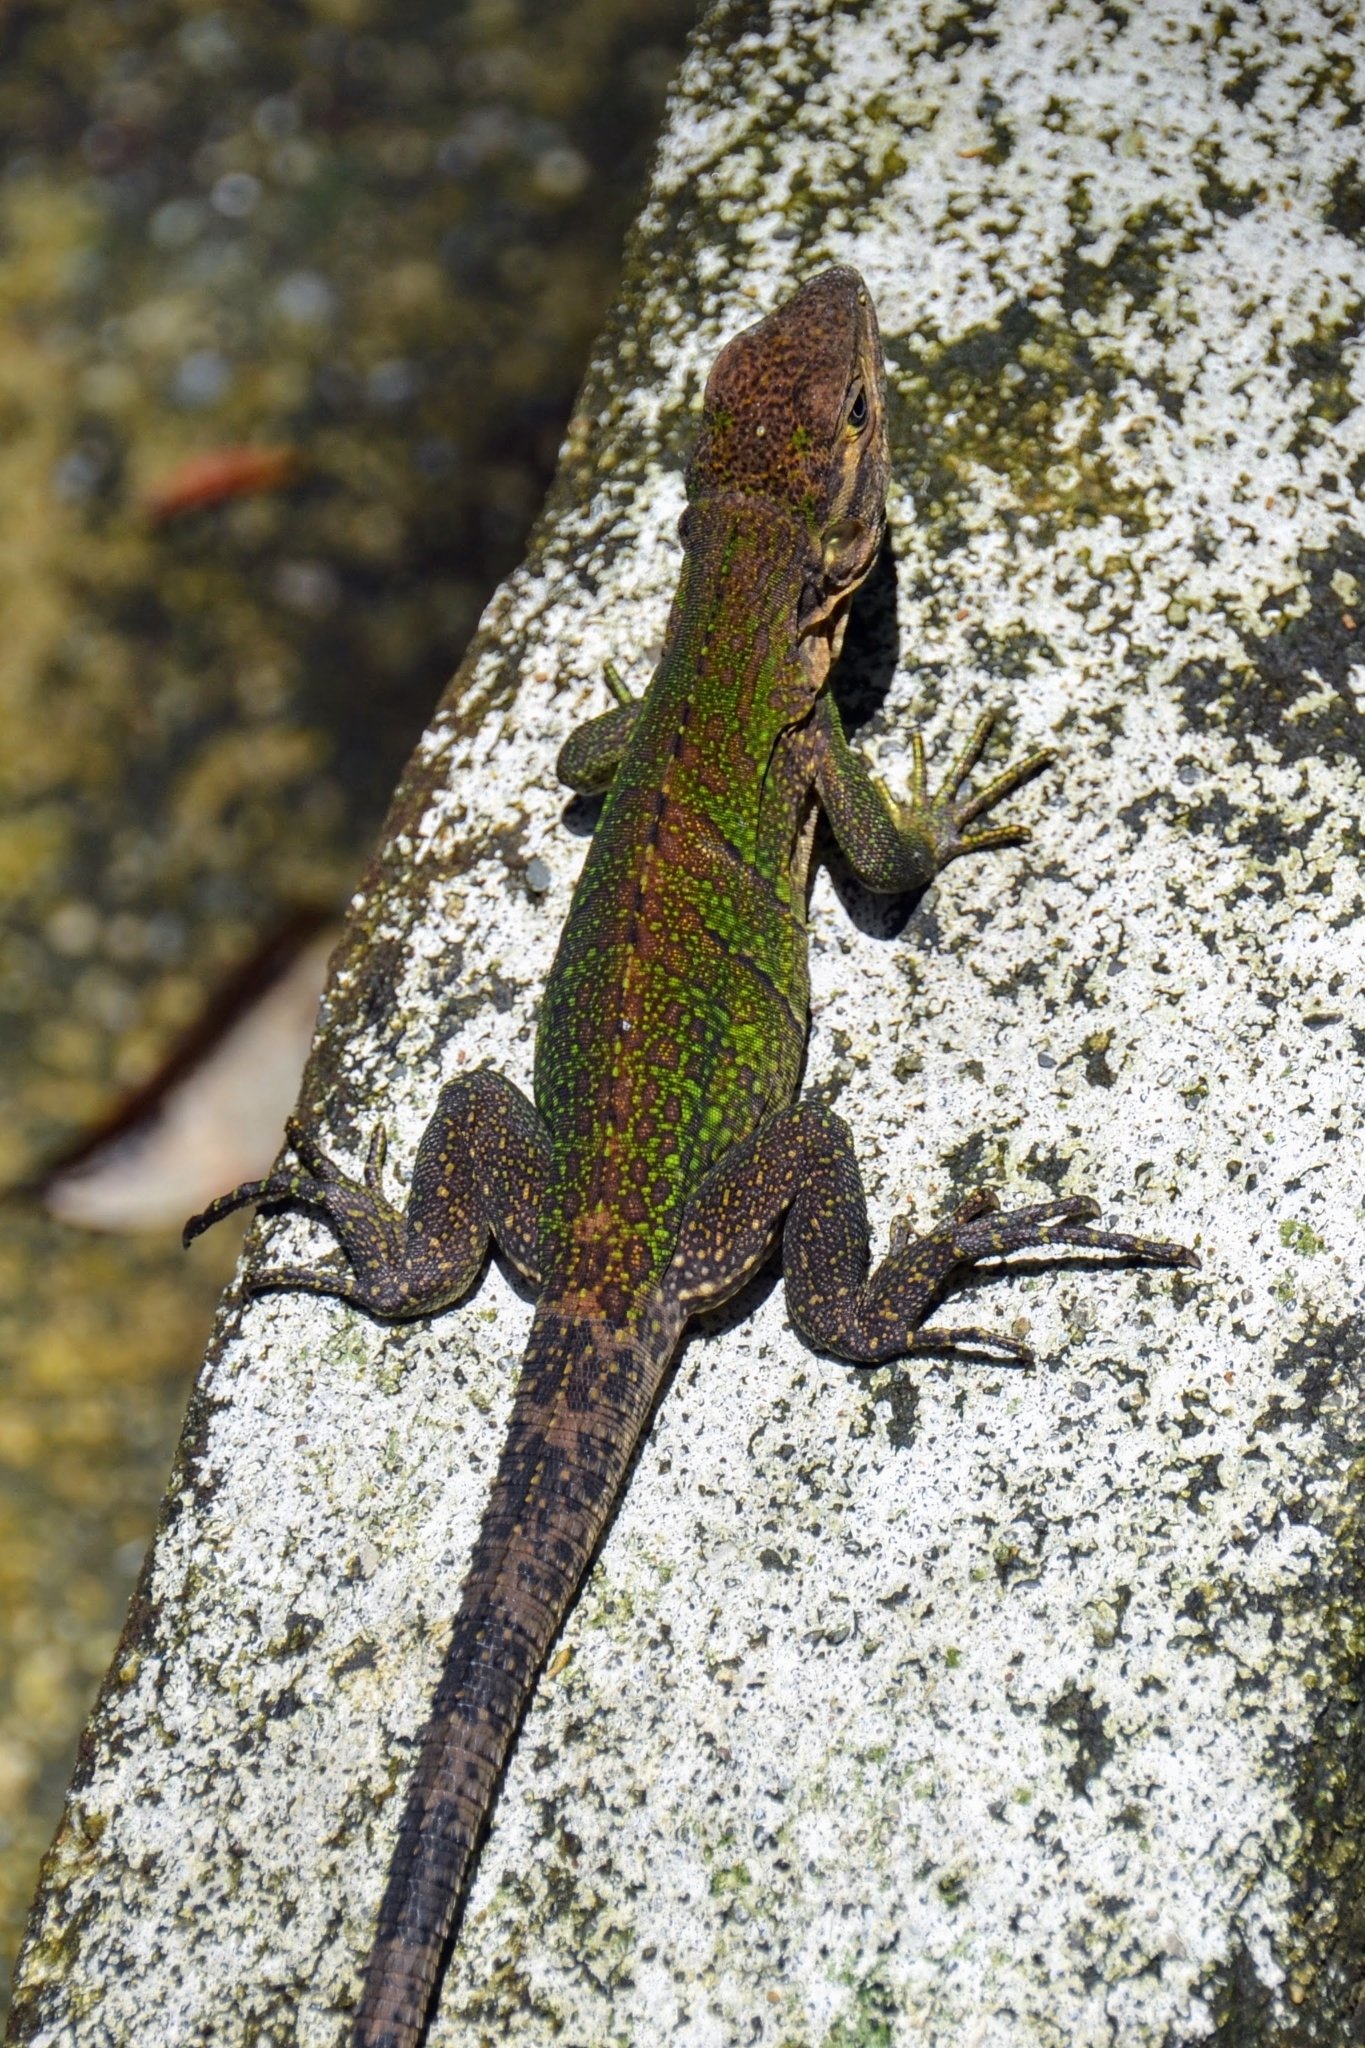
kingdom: Animalia
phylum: Chordata
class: Squamata
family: Iguanidae
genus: Ctenosaura
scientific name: Ctenosaura similis
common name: Black spiny-tailed iguana
